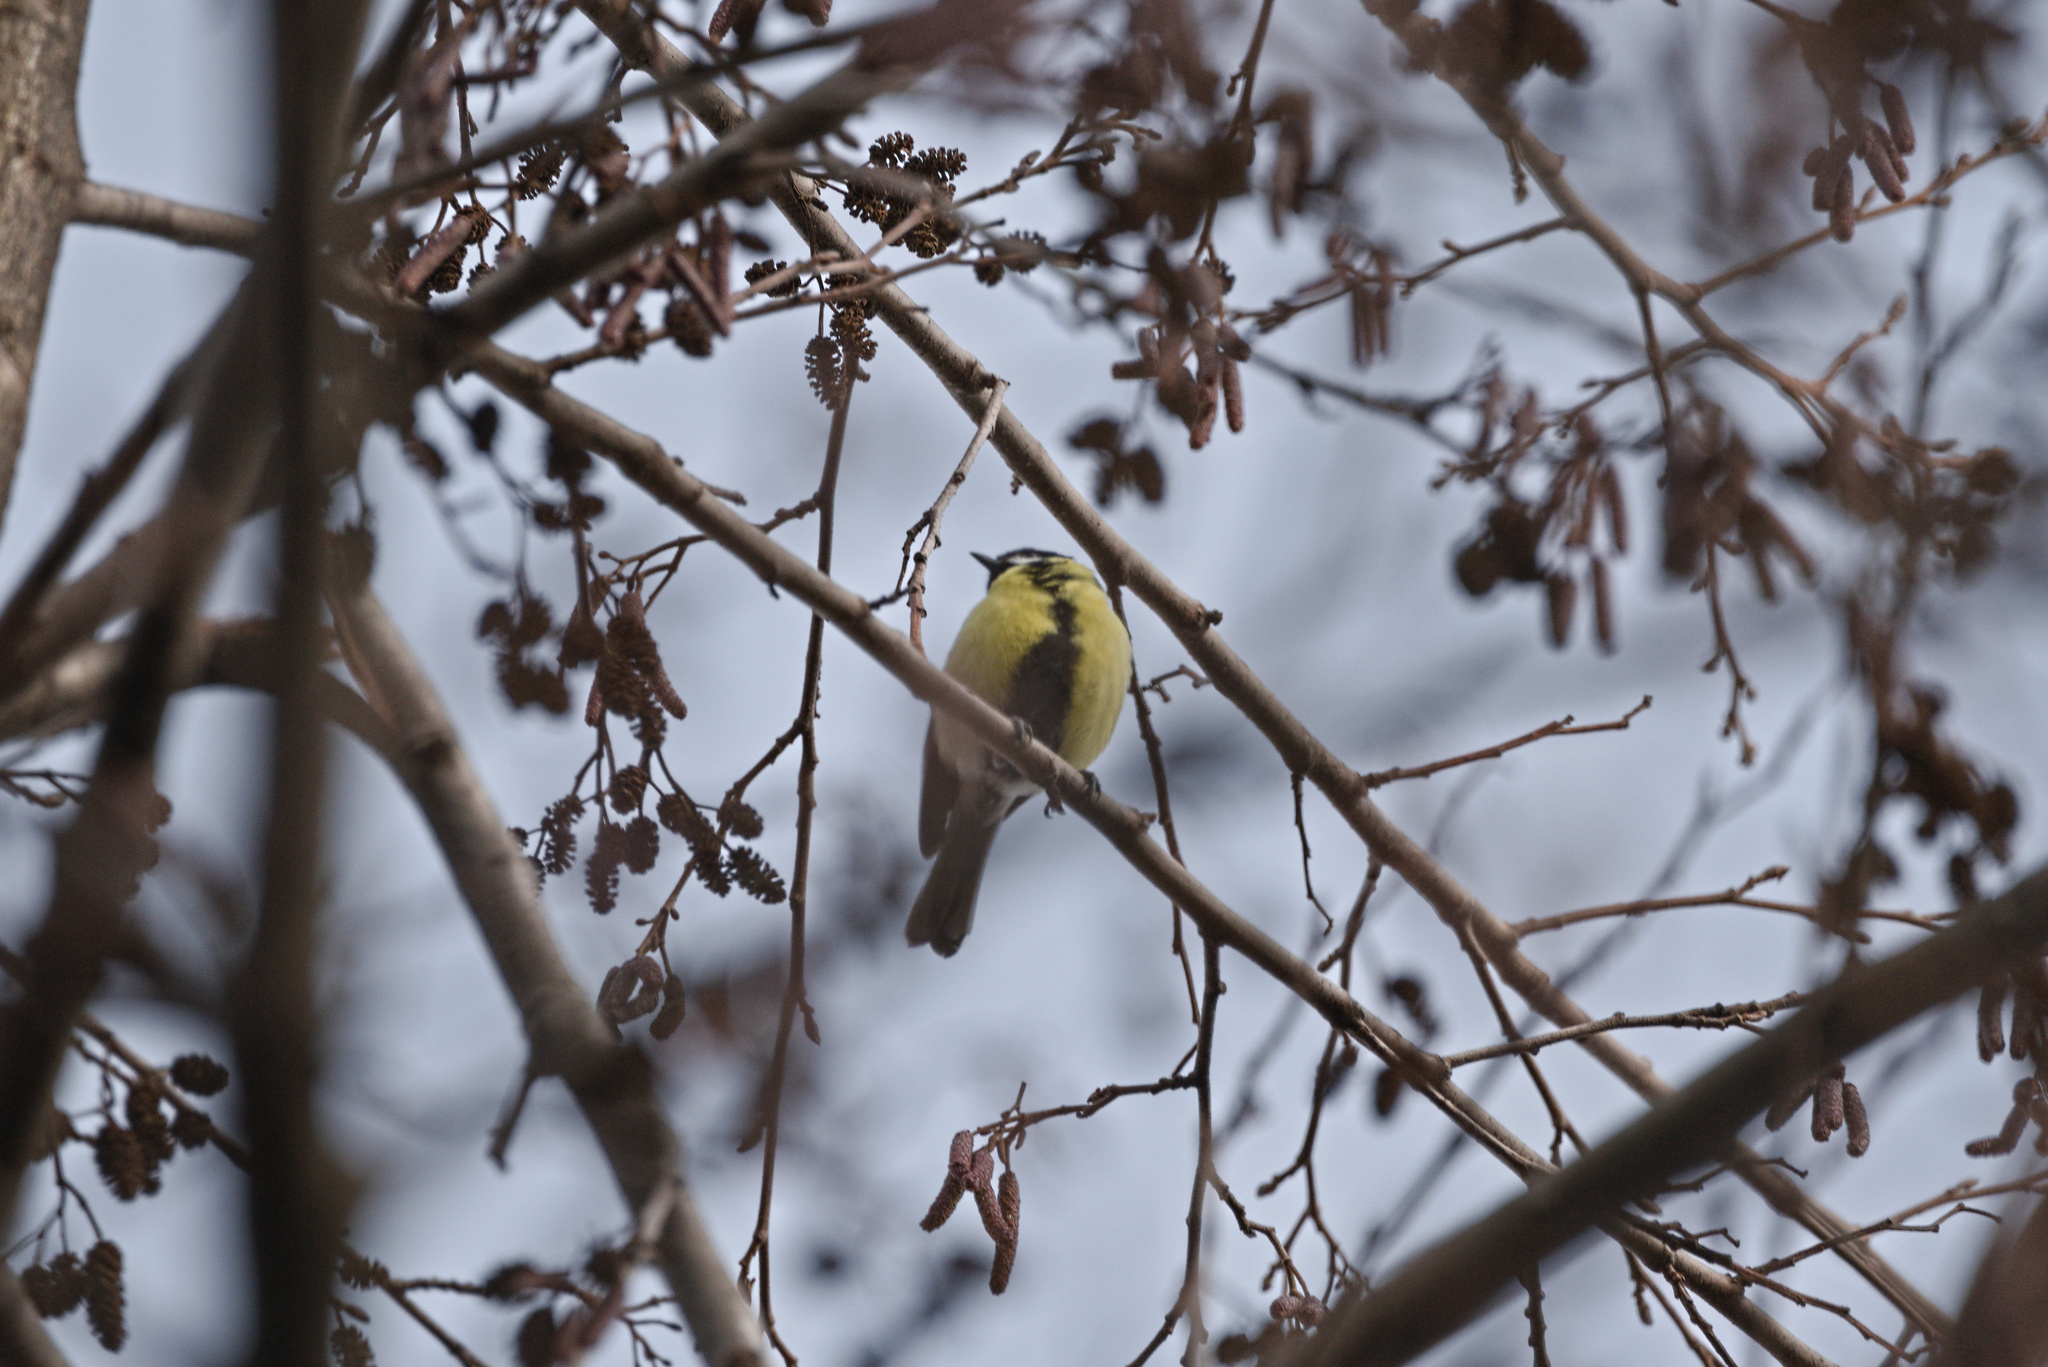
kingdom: Animalia
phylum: Chordata
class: Aves
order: Passeriformes
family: Paridae
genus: Parus
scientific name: Parus major
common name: Great tit
